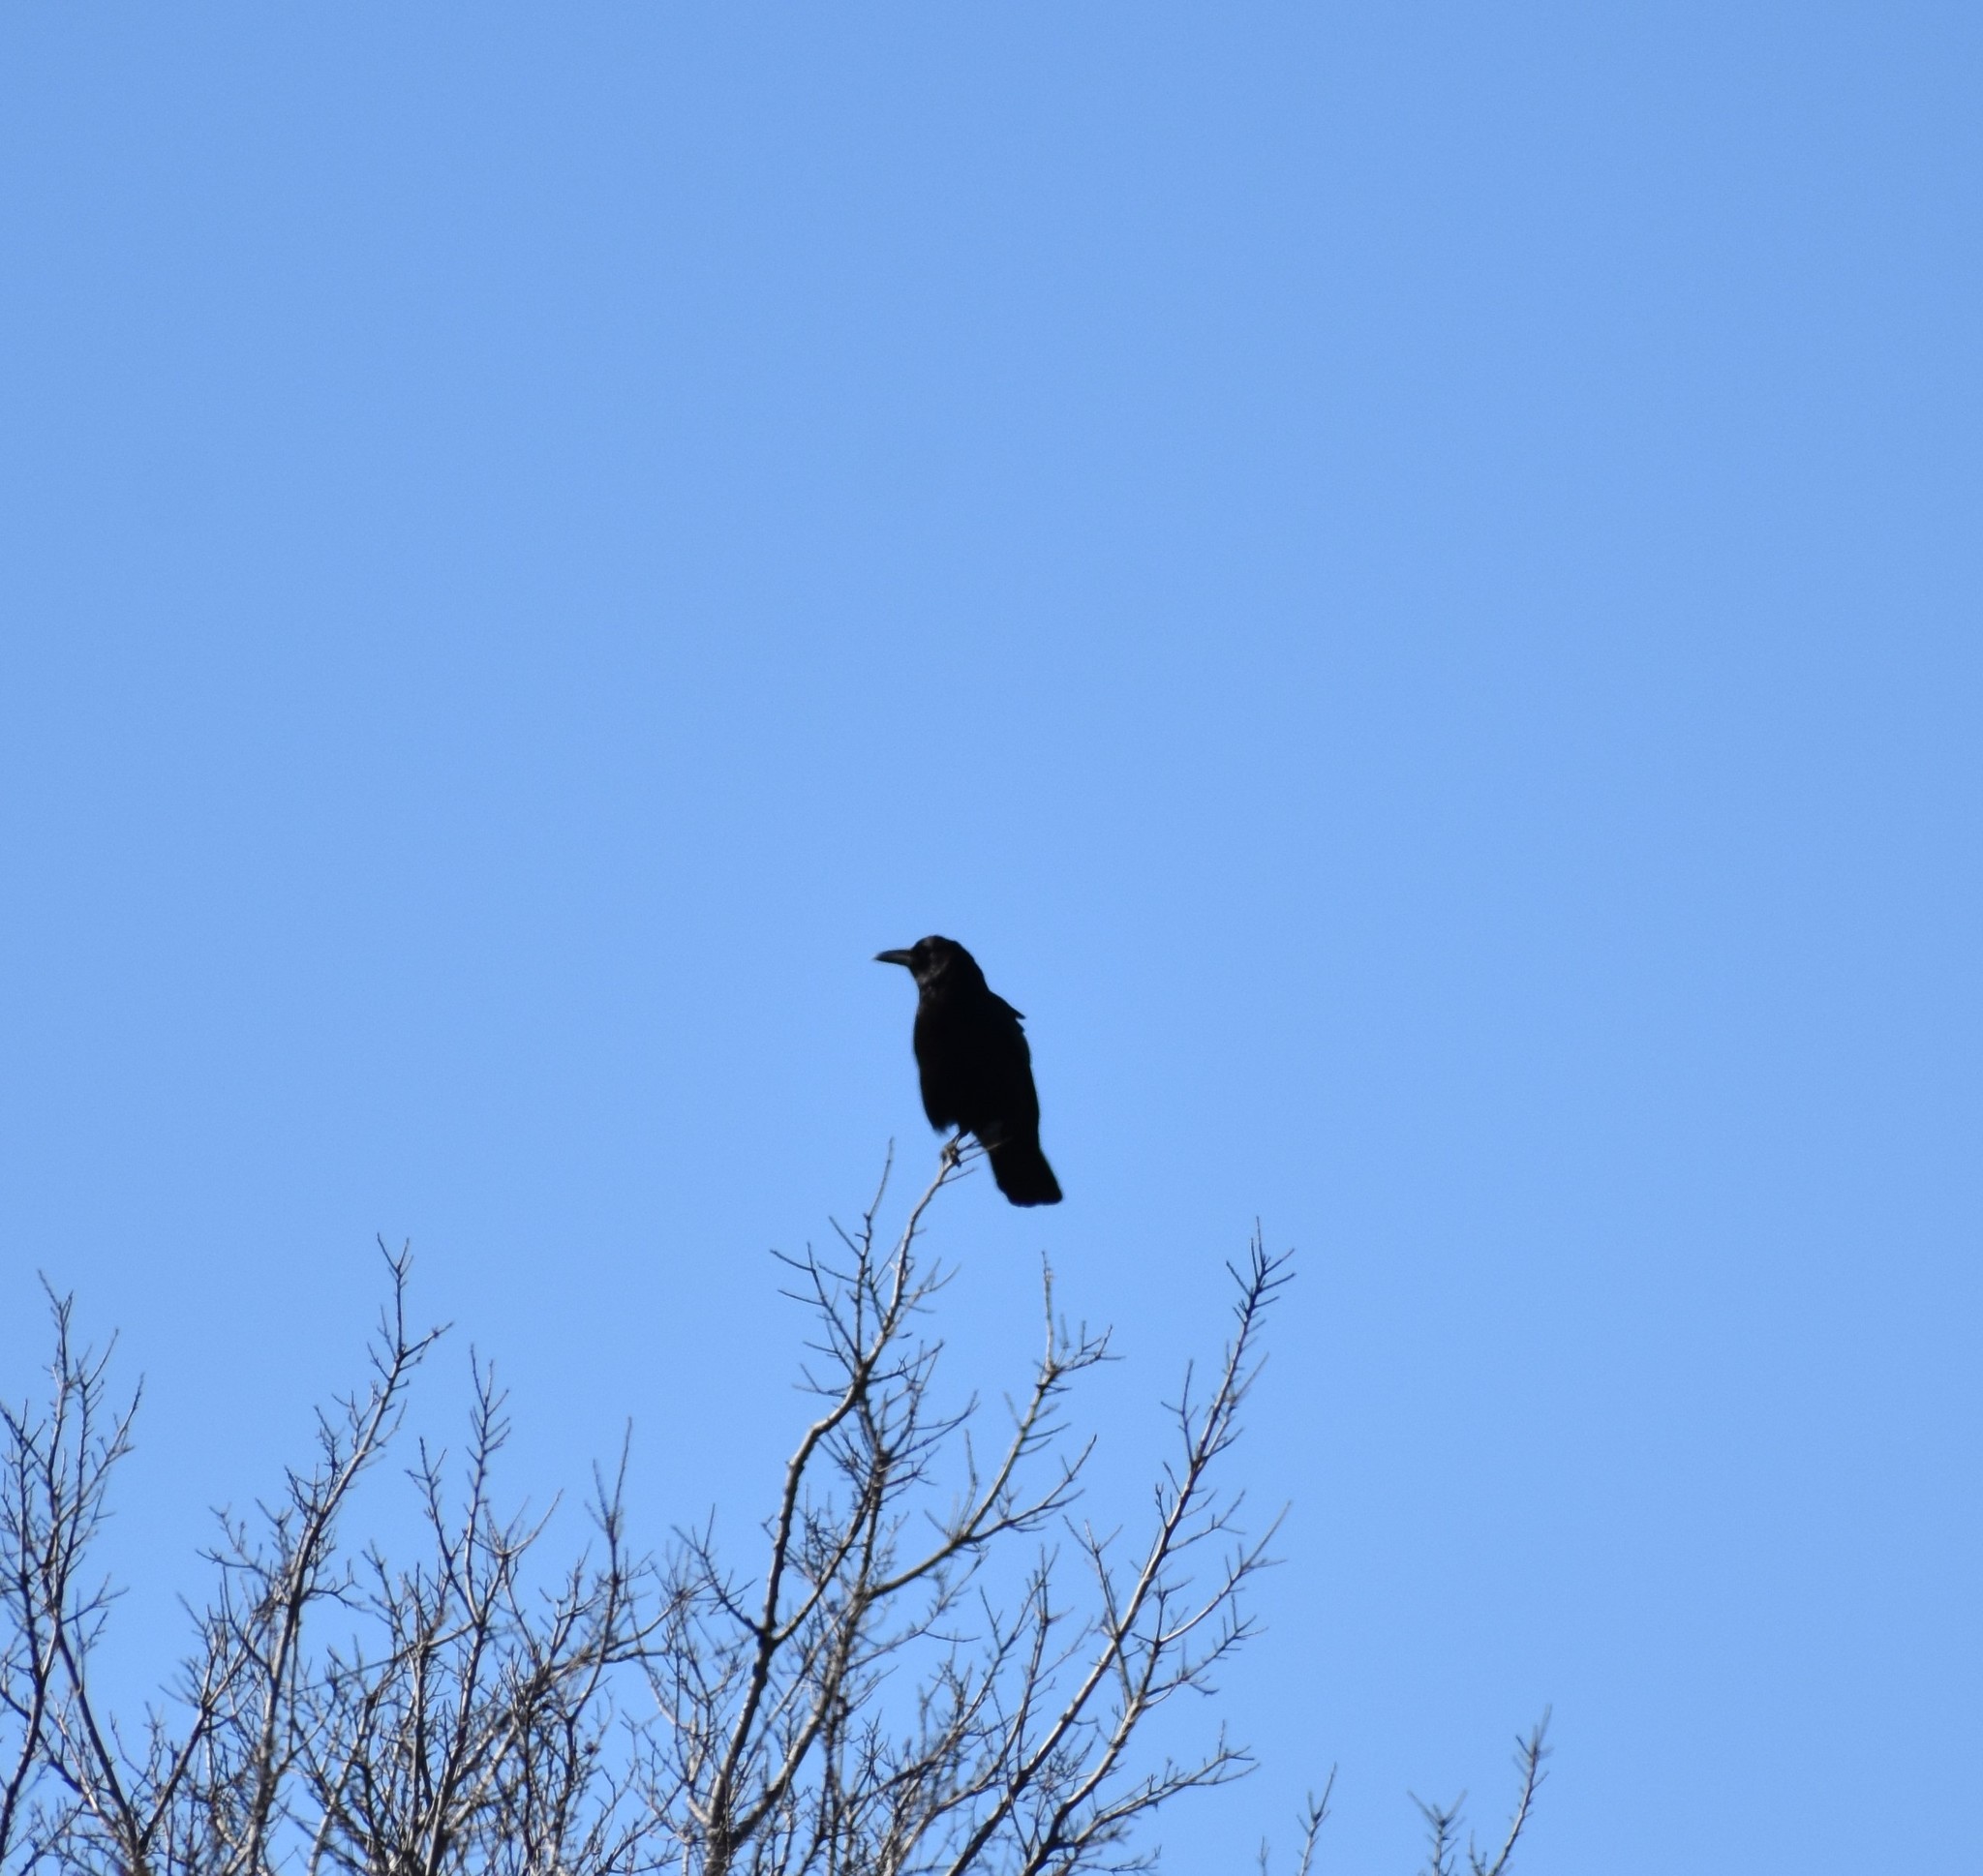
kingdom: Animalia
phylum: Chordata
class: Aves
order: Passeriformes
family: Corvidae
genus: Corvus
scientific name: Corvus brachyrhynchos
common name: American crow
